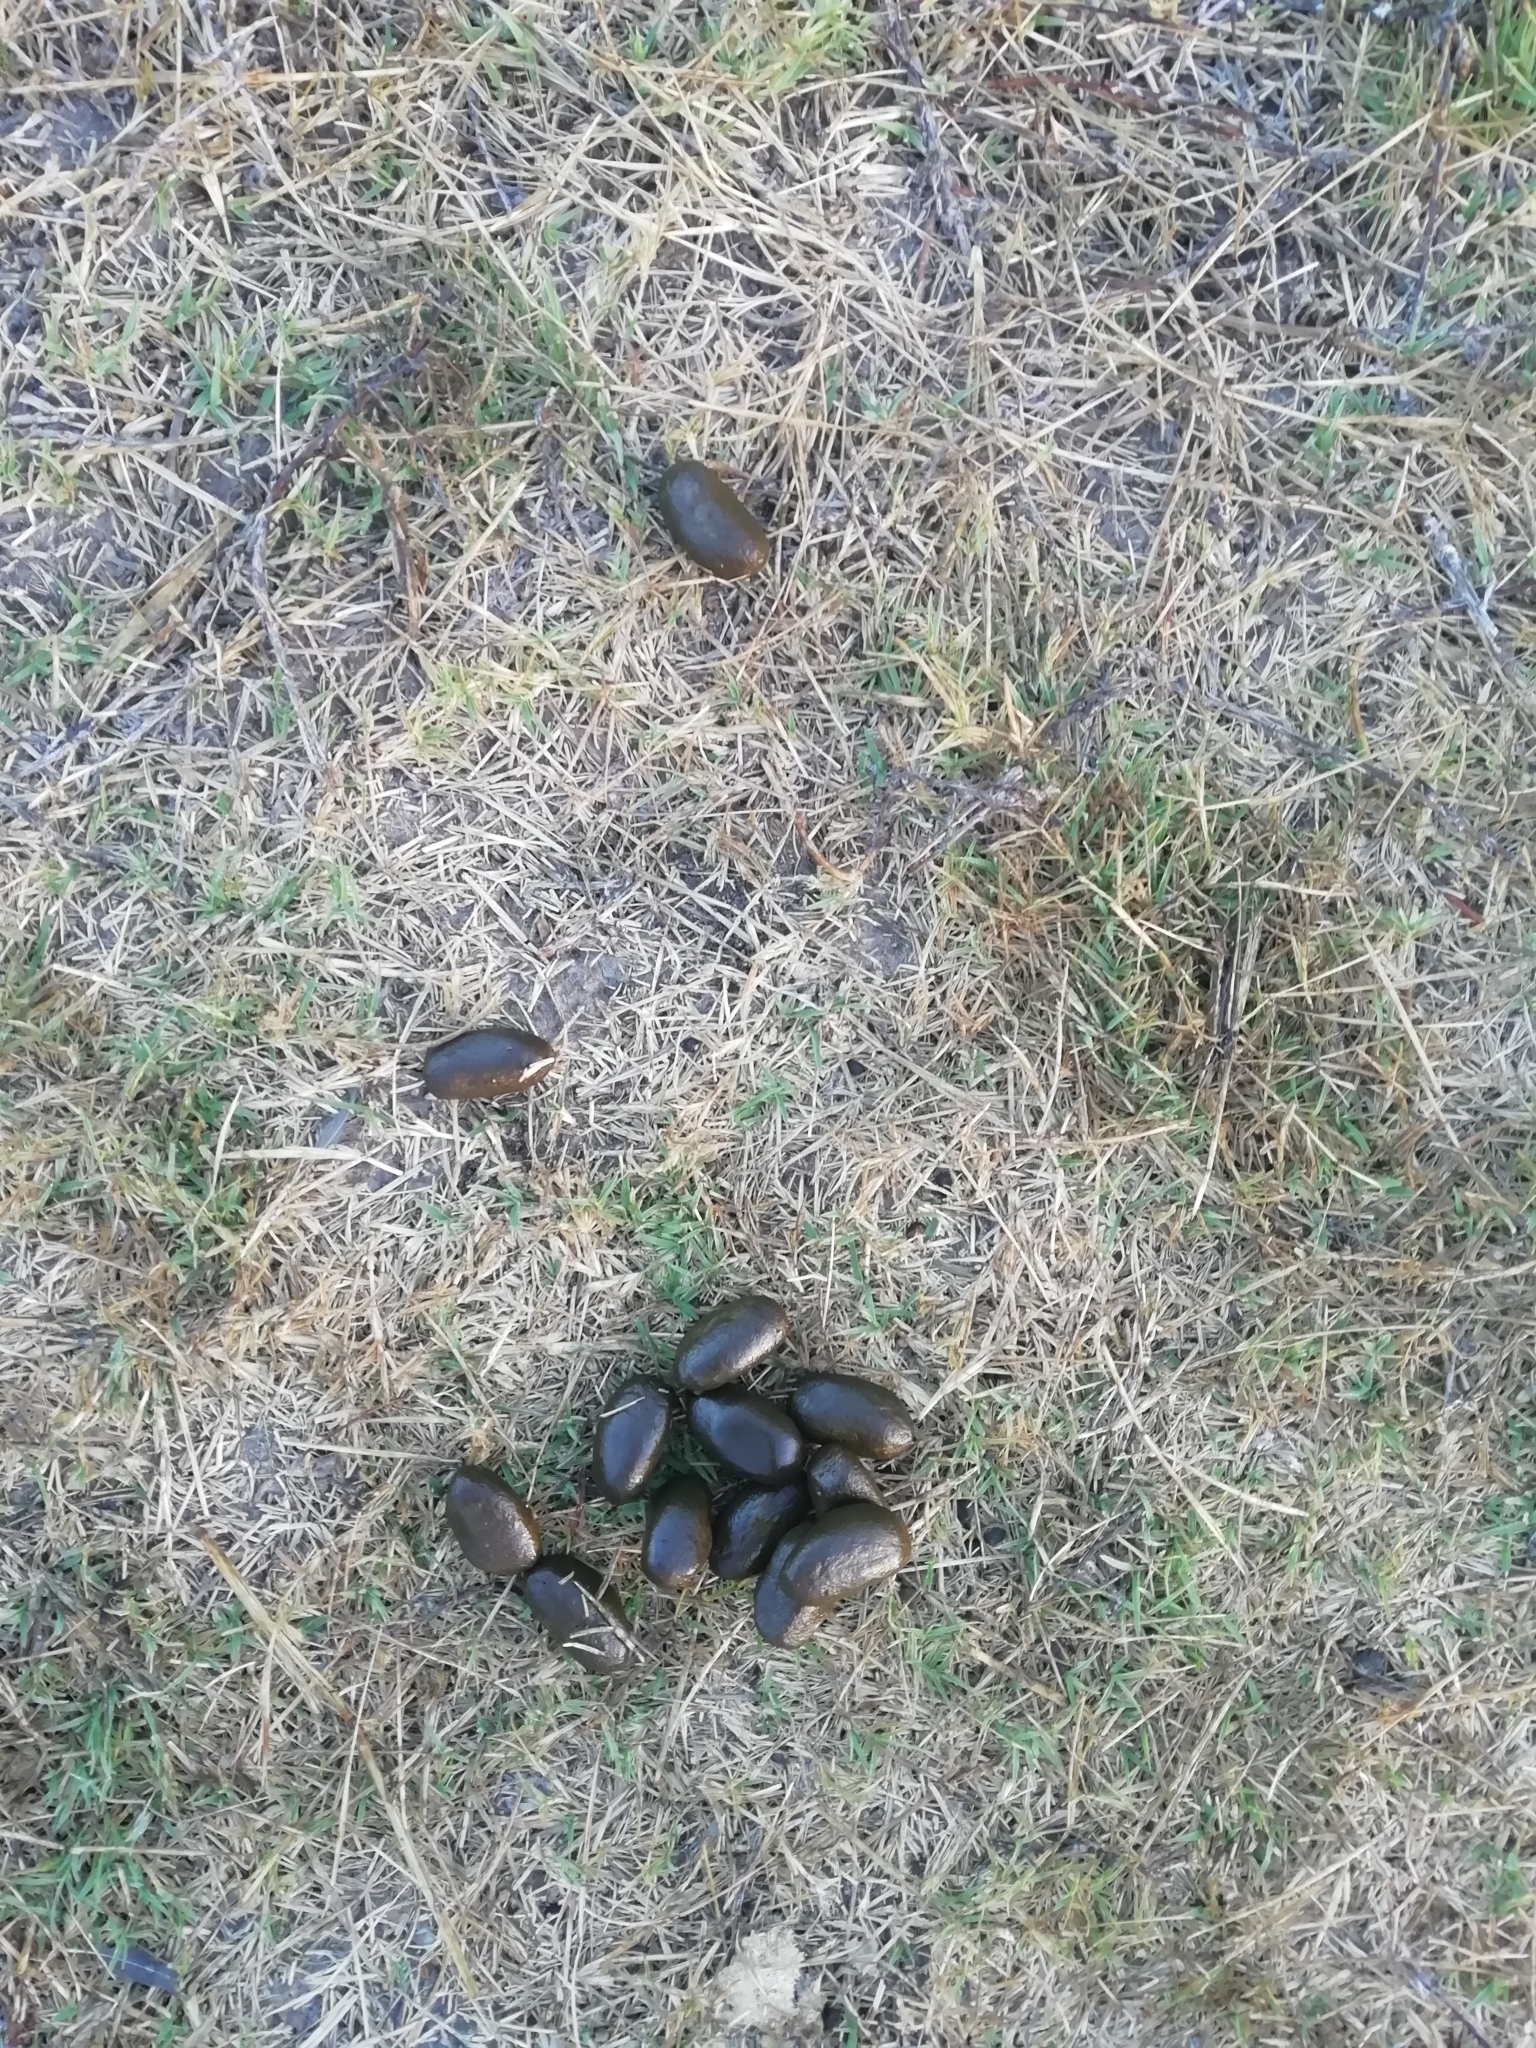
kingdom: Animalia
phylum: Chordata
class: Mammalia
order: Rodentia
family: Caviidae
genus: Hydrochoerus
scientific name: Hydrochoerus hydrochaeris
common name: Capybara
